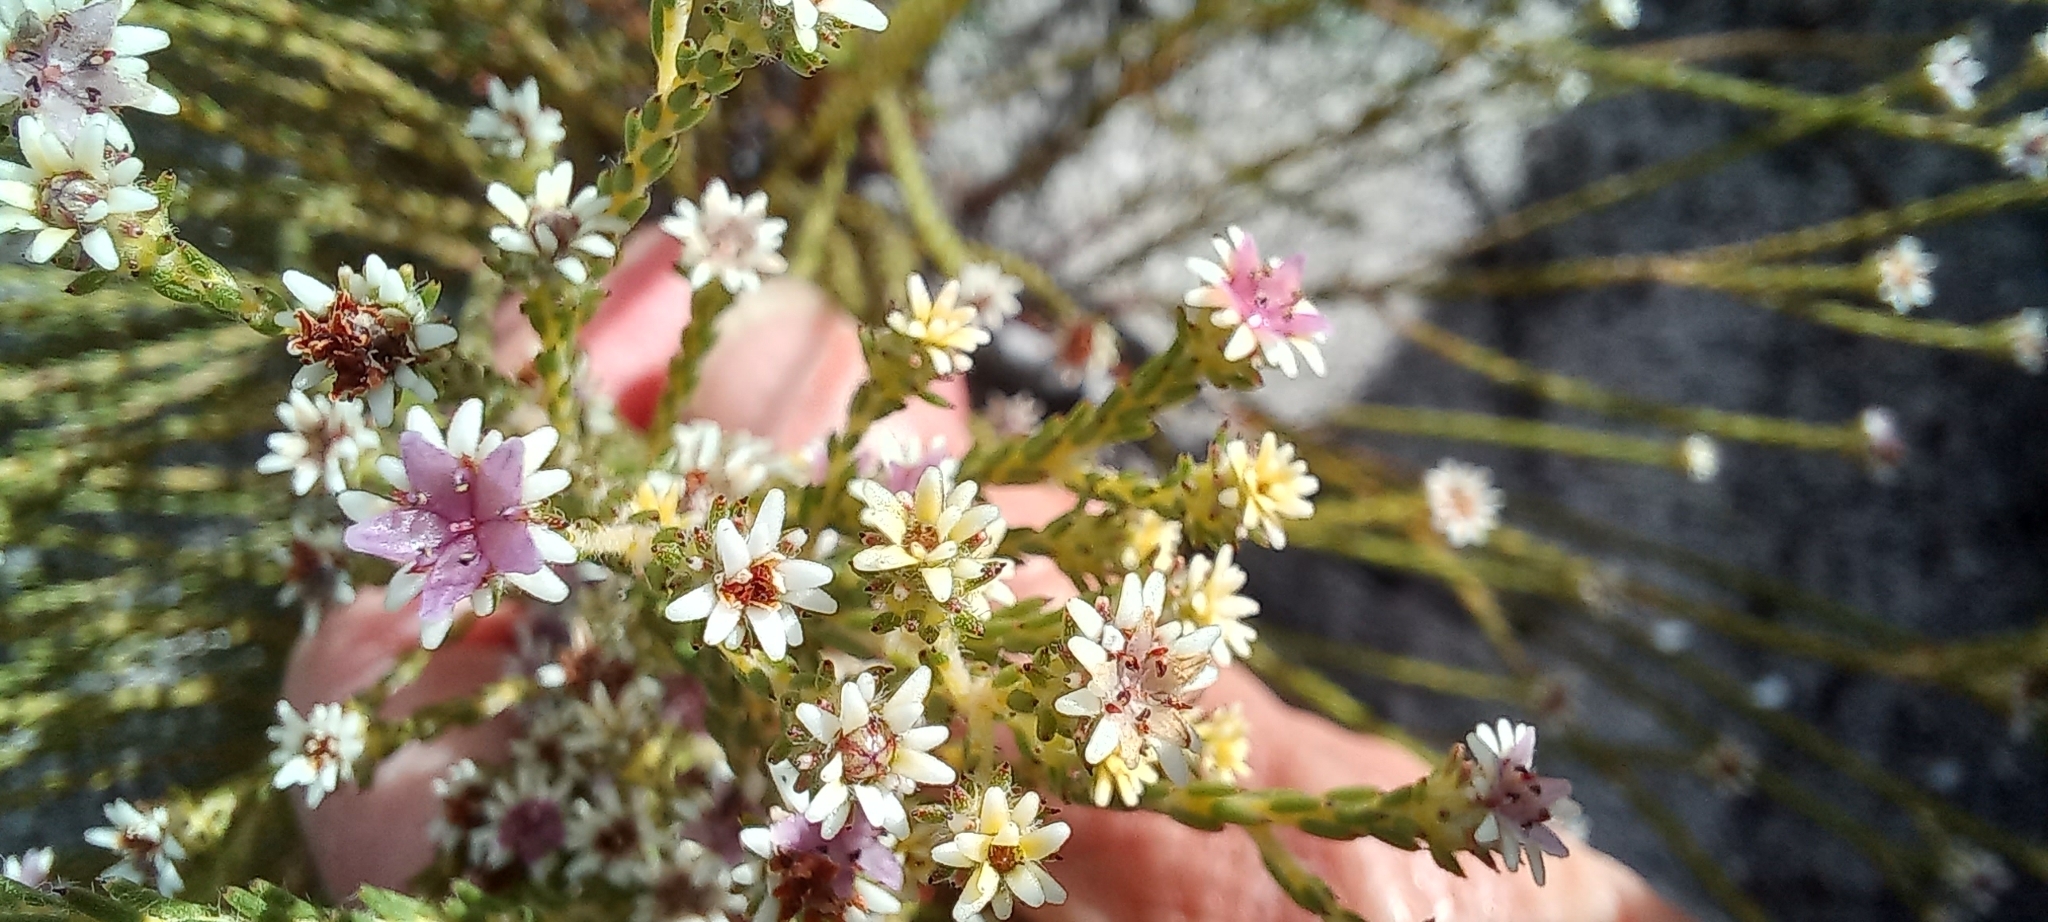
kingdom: Plantae
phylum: Tracheophyta
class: Magnoliopsida
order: Bruniales
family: Bruniaceae
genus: Staavia
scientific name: Staavia radiata
